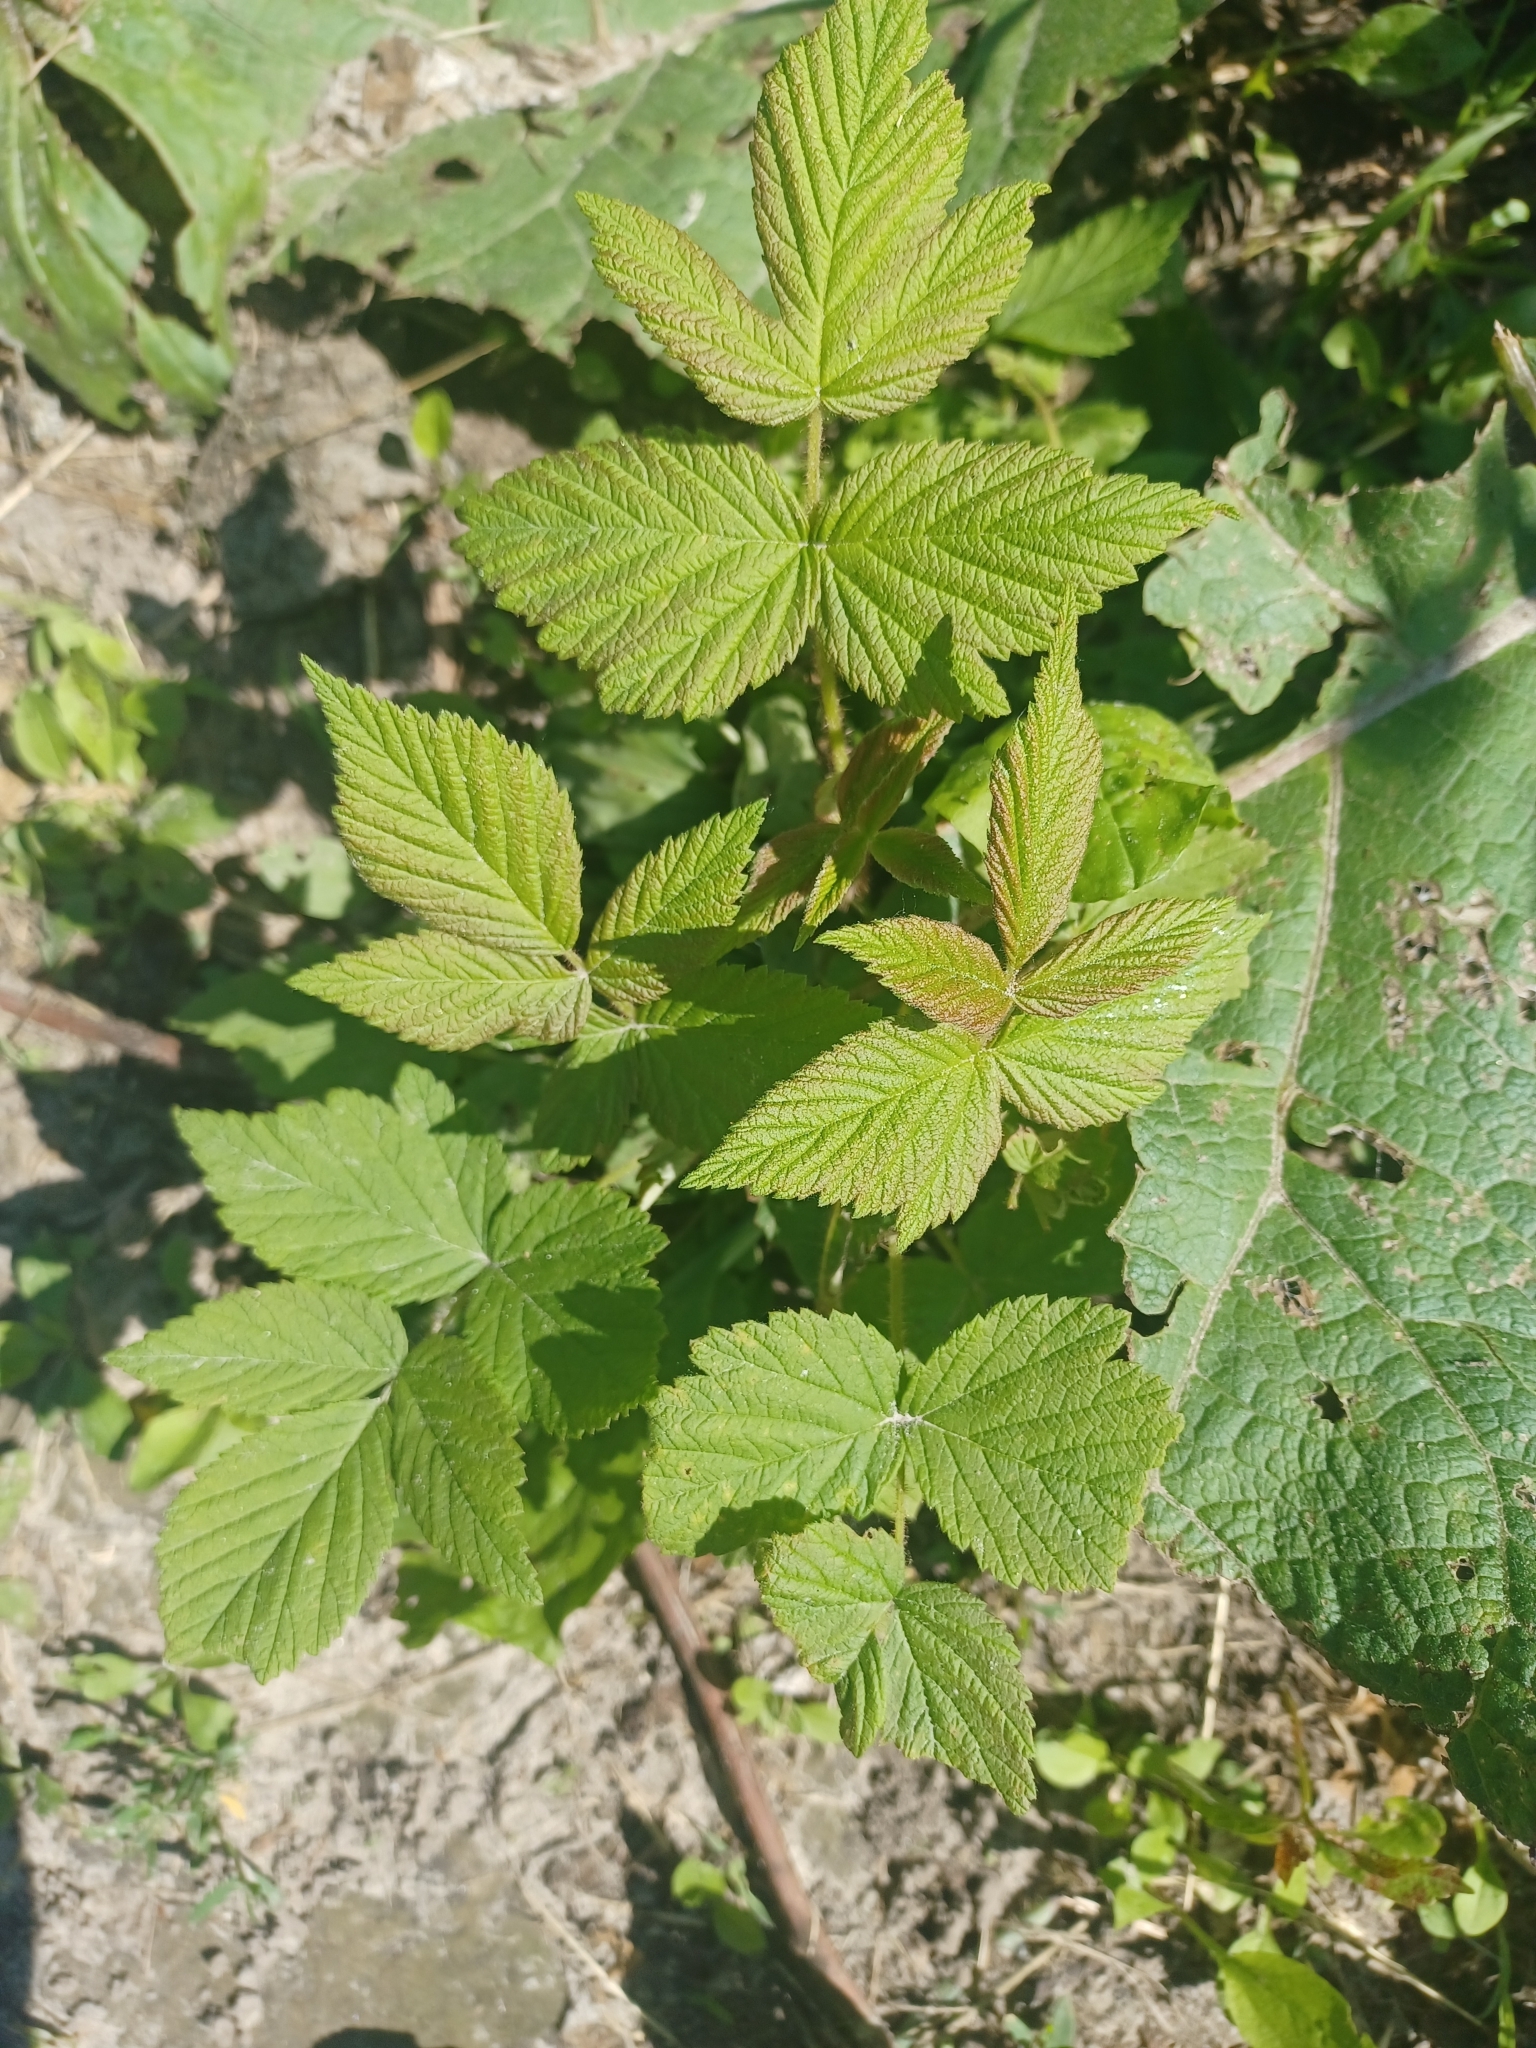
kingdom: Plantae
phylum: Tracheophyta
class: Magnoliopsida
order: Rosales
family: Rosaceae
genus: Rubus
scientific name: Rubus idaeus
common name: Raspberry
